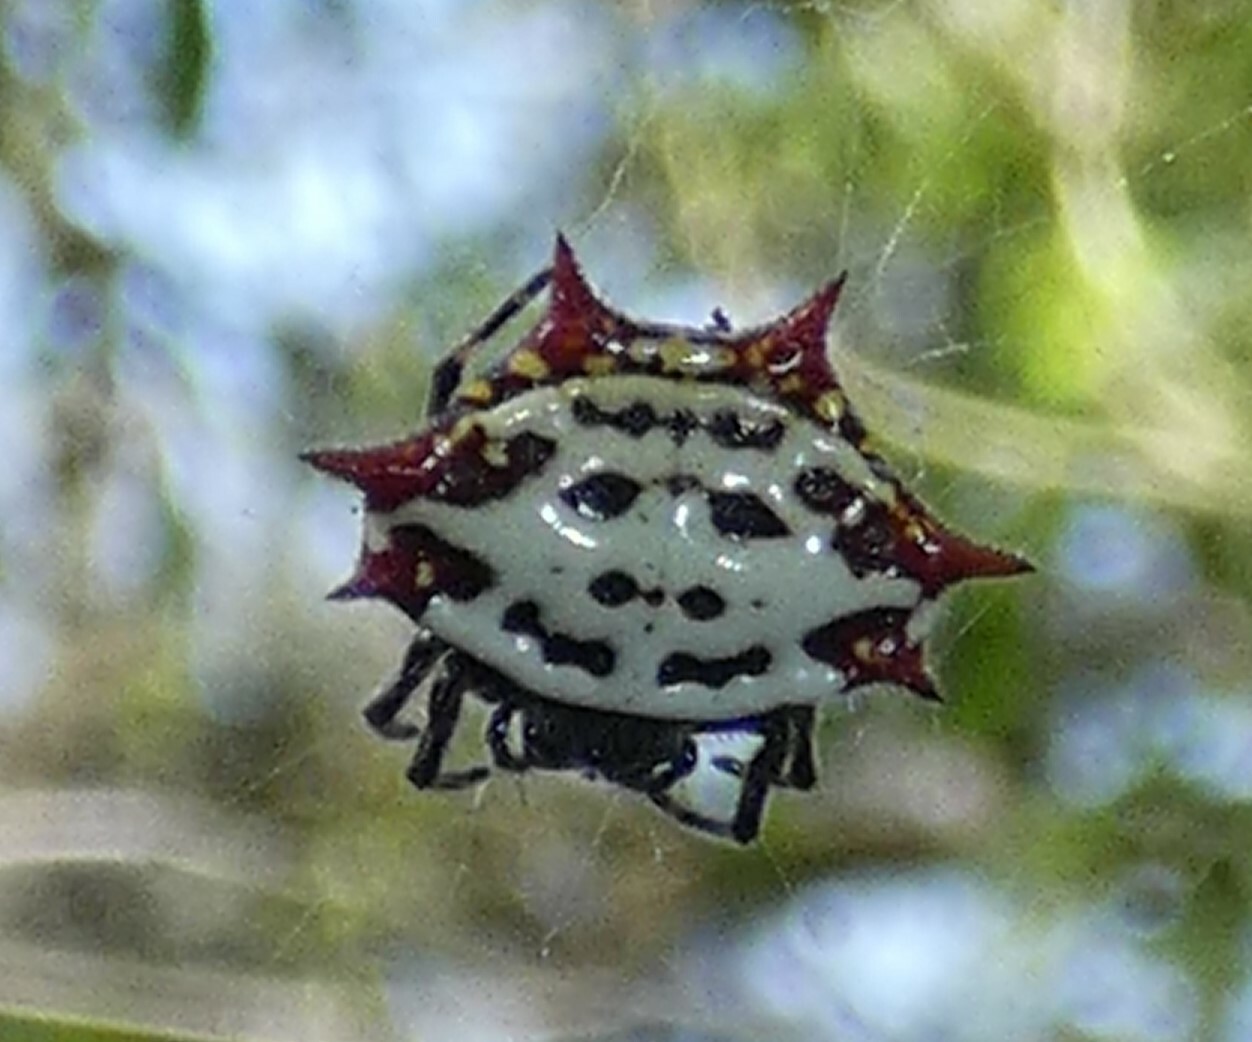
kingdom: Animalia
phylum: Arthropoda
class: Arachnida
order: Araneae
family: Araneidae
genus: Gasteracantha
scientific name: Gasteracantha cancriformis
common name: Orb weavers
